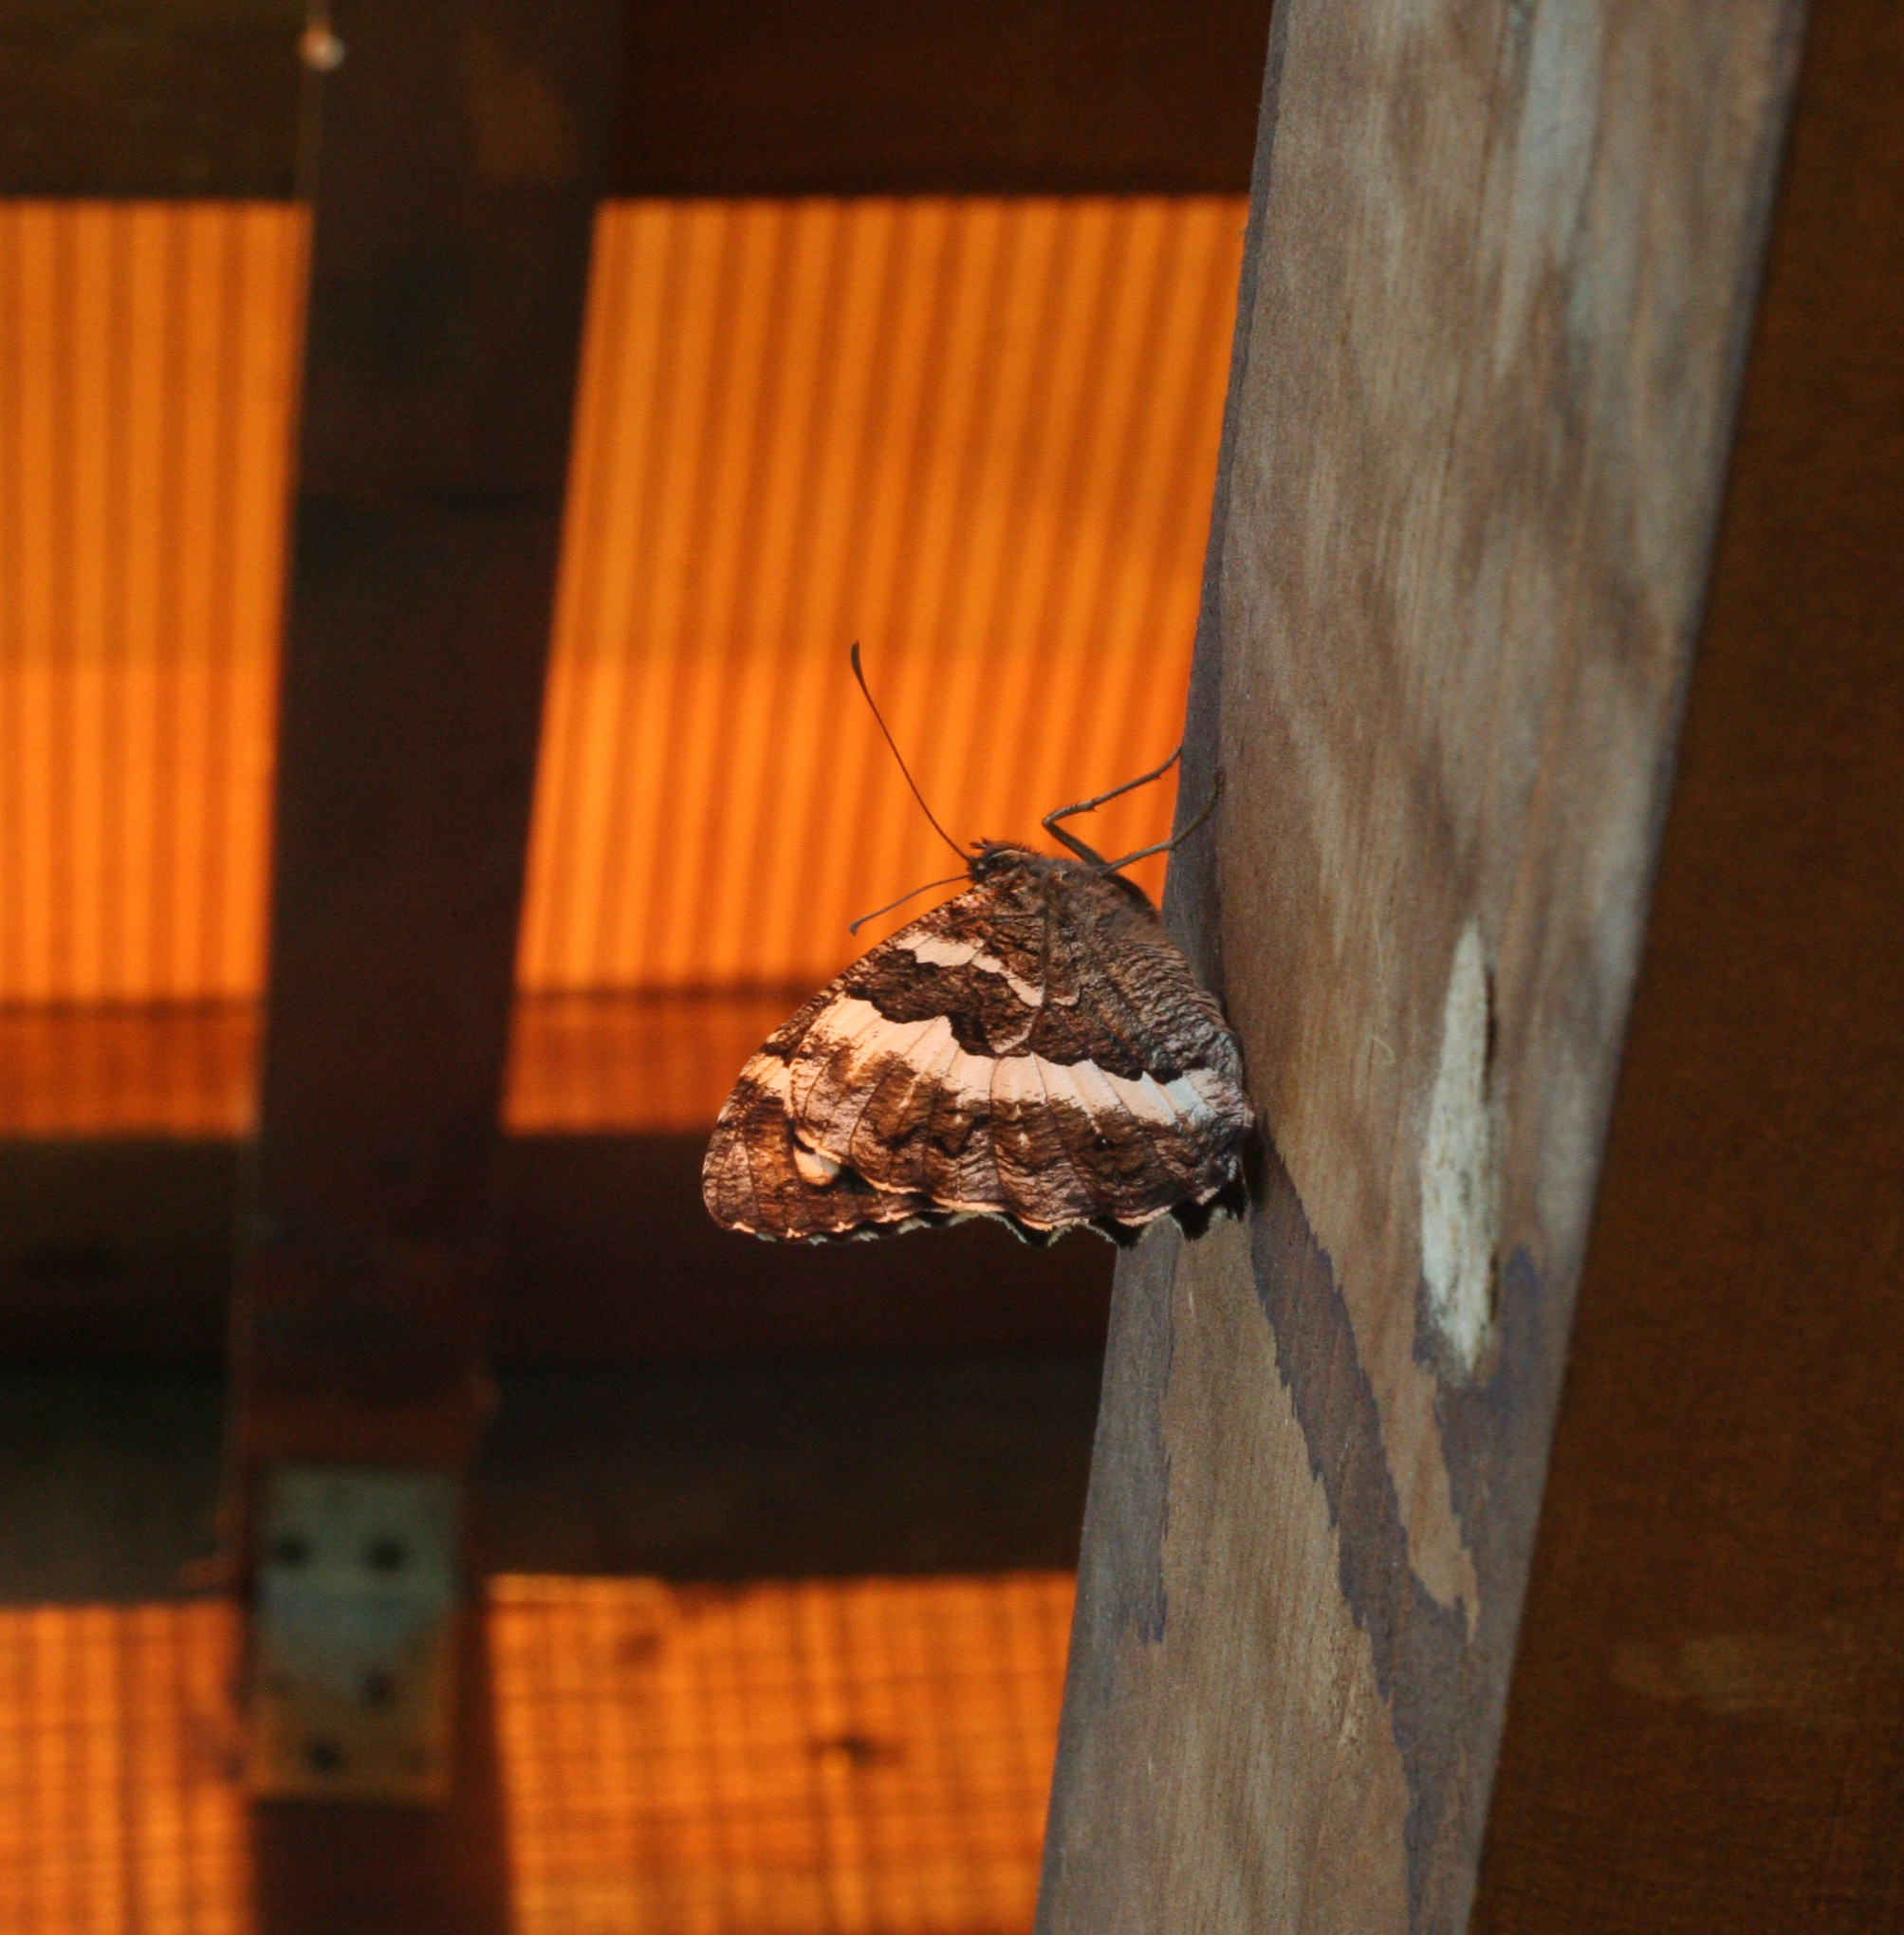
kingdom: Animalia
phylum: Arthropoda
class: Insecta
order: Lepidoptera
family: Lycaenidae
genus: Loweia
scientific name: Loweia tityrus
